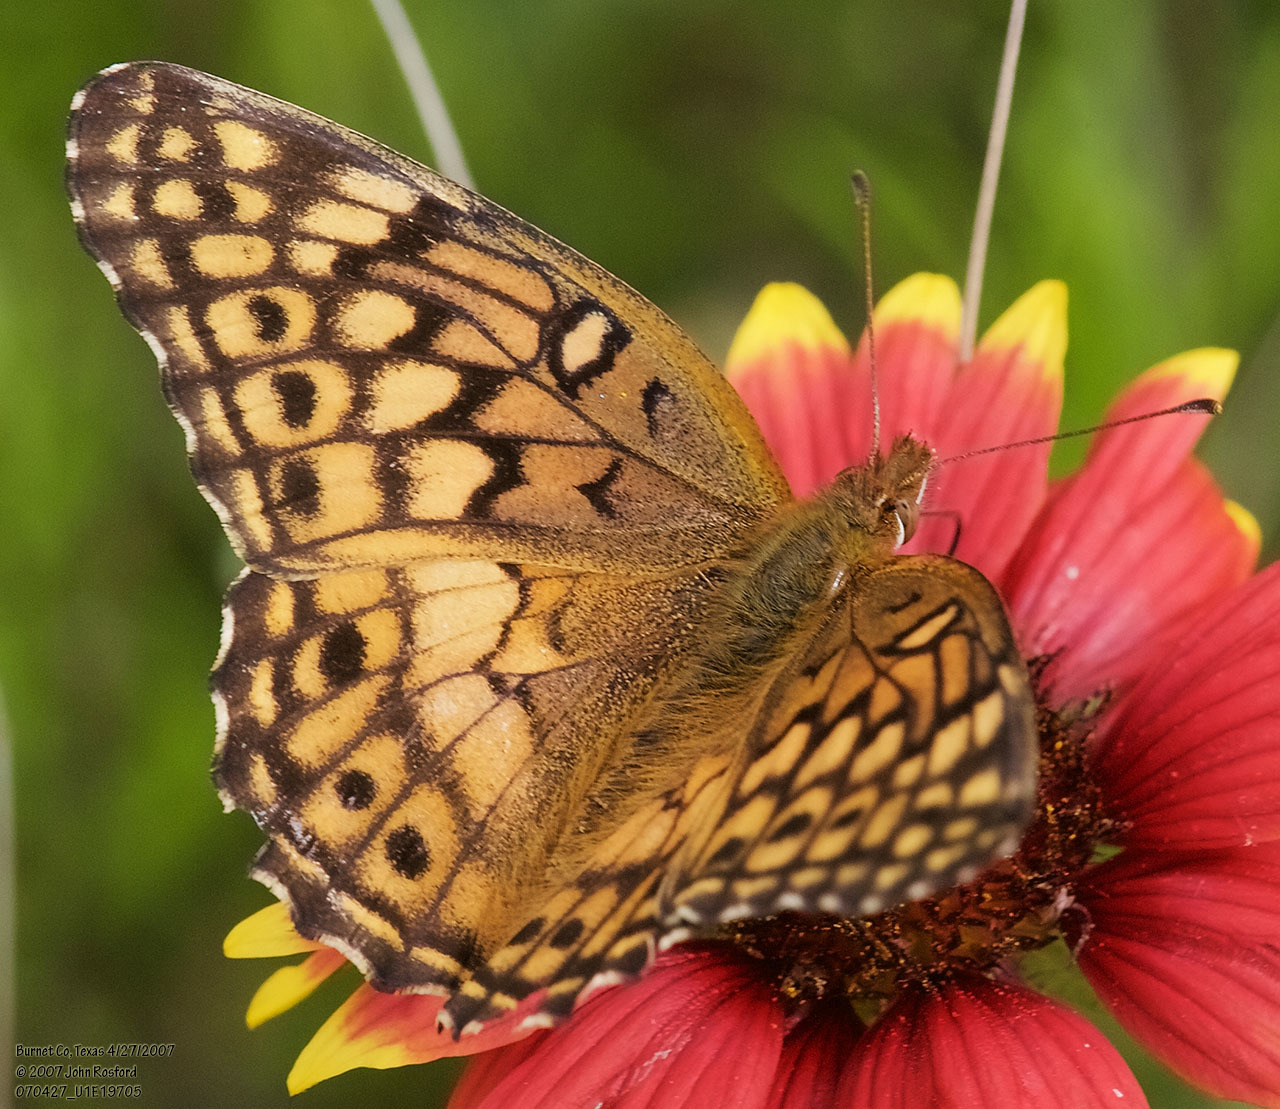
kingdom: Animalia
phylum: Arthropoda
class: Insecta
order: Lepidoptera
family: Nymphalidae
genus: Euptoieta
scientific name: Euptoieta claudia
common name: Variegated fritillary
